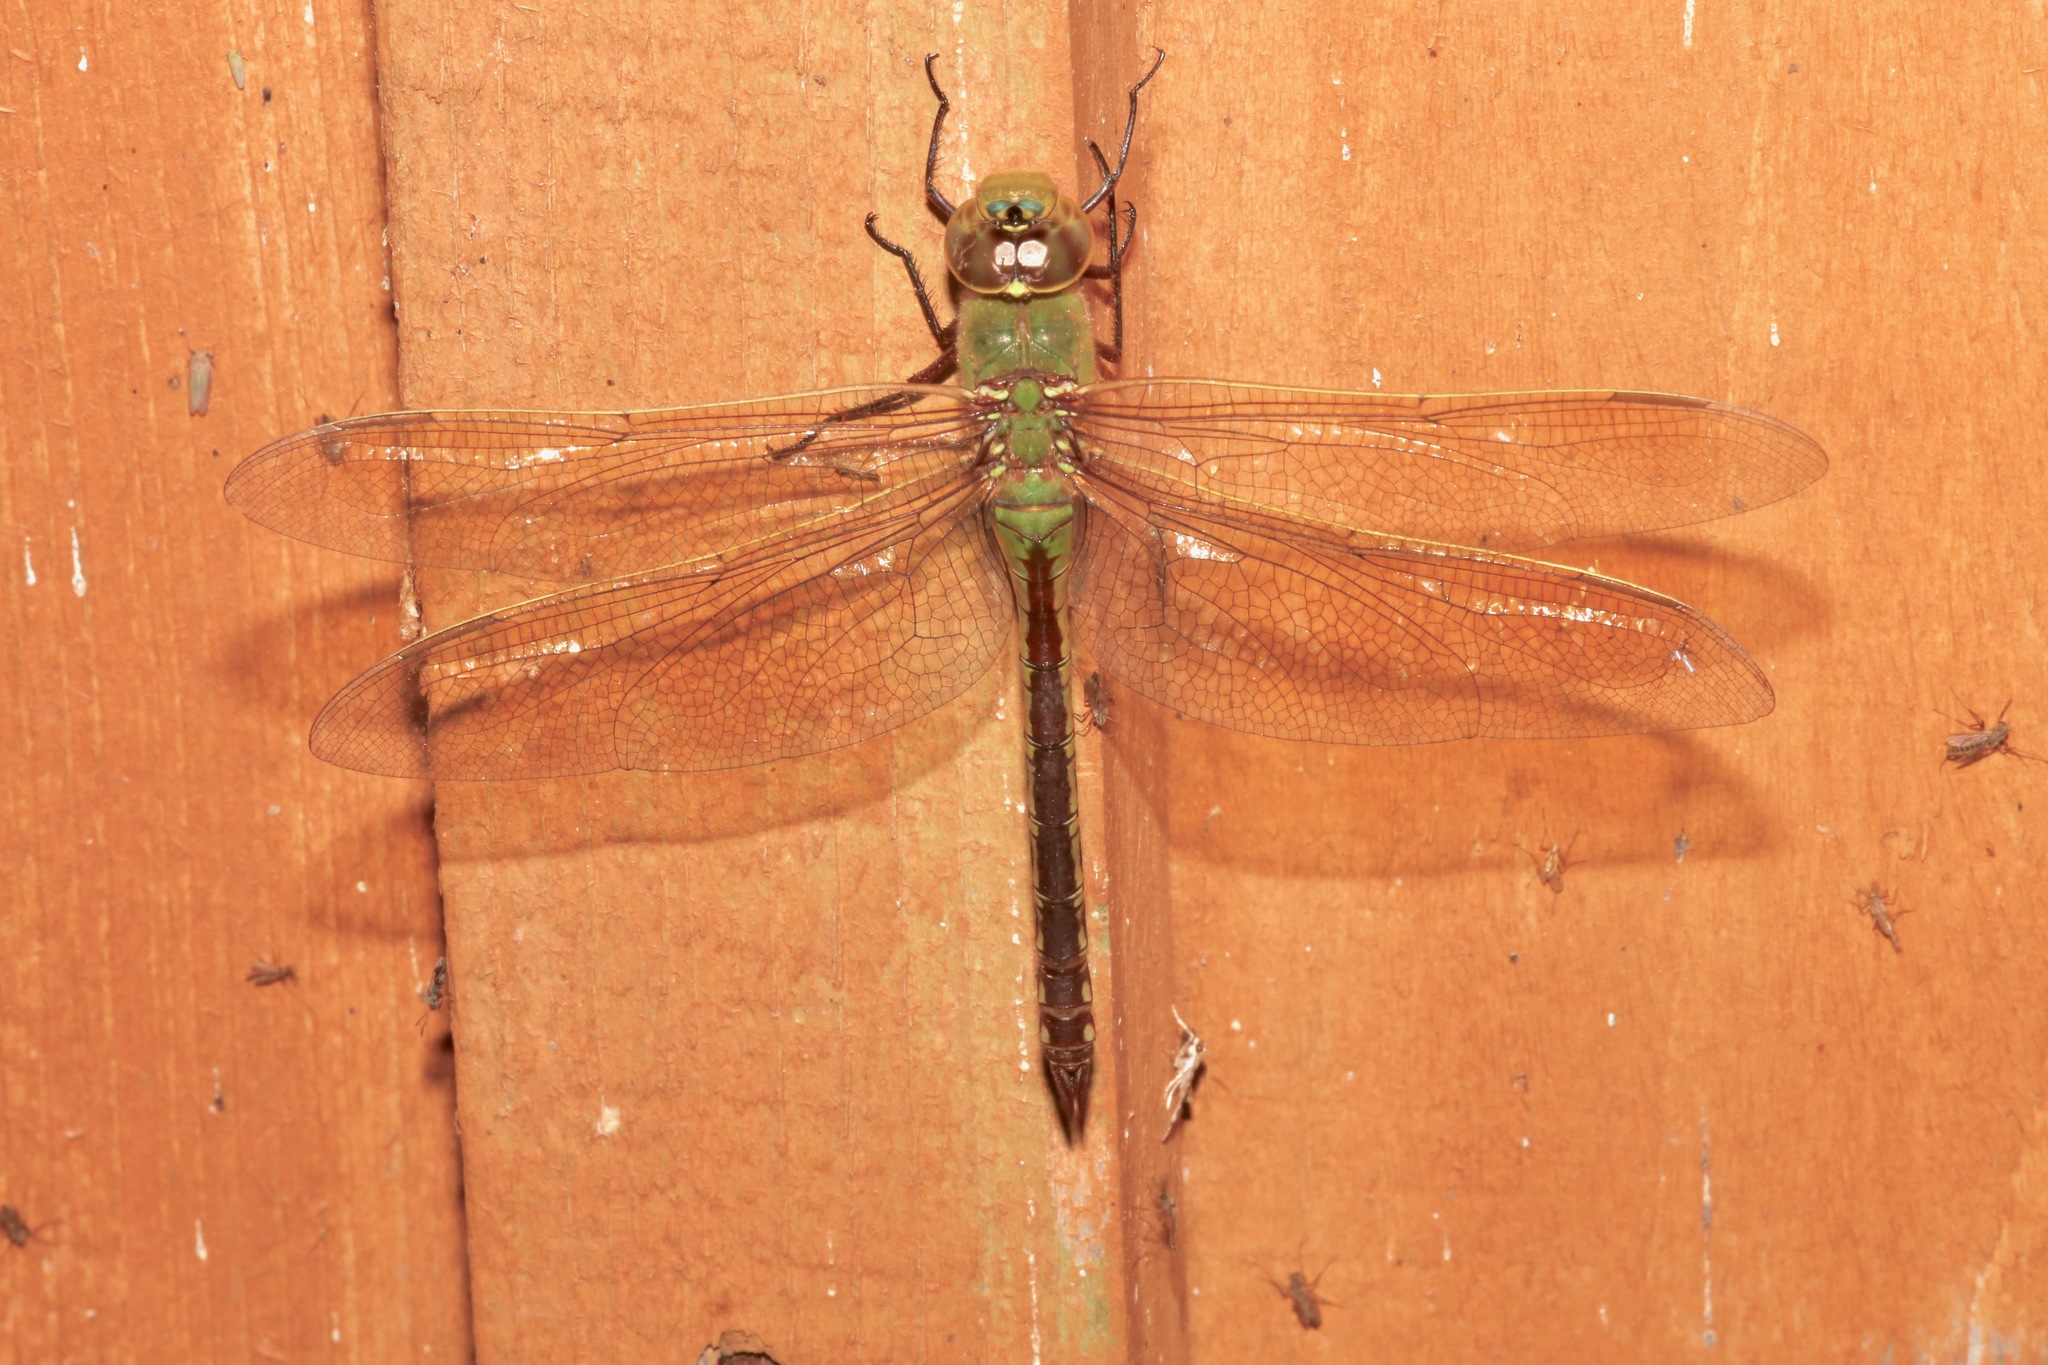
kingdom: Animalia
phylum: Arthropoda
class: Insecta
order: Odonata
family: Aeshnidae
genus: Anax
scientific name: Anax junius
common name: Common green darner
